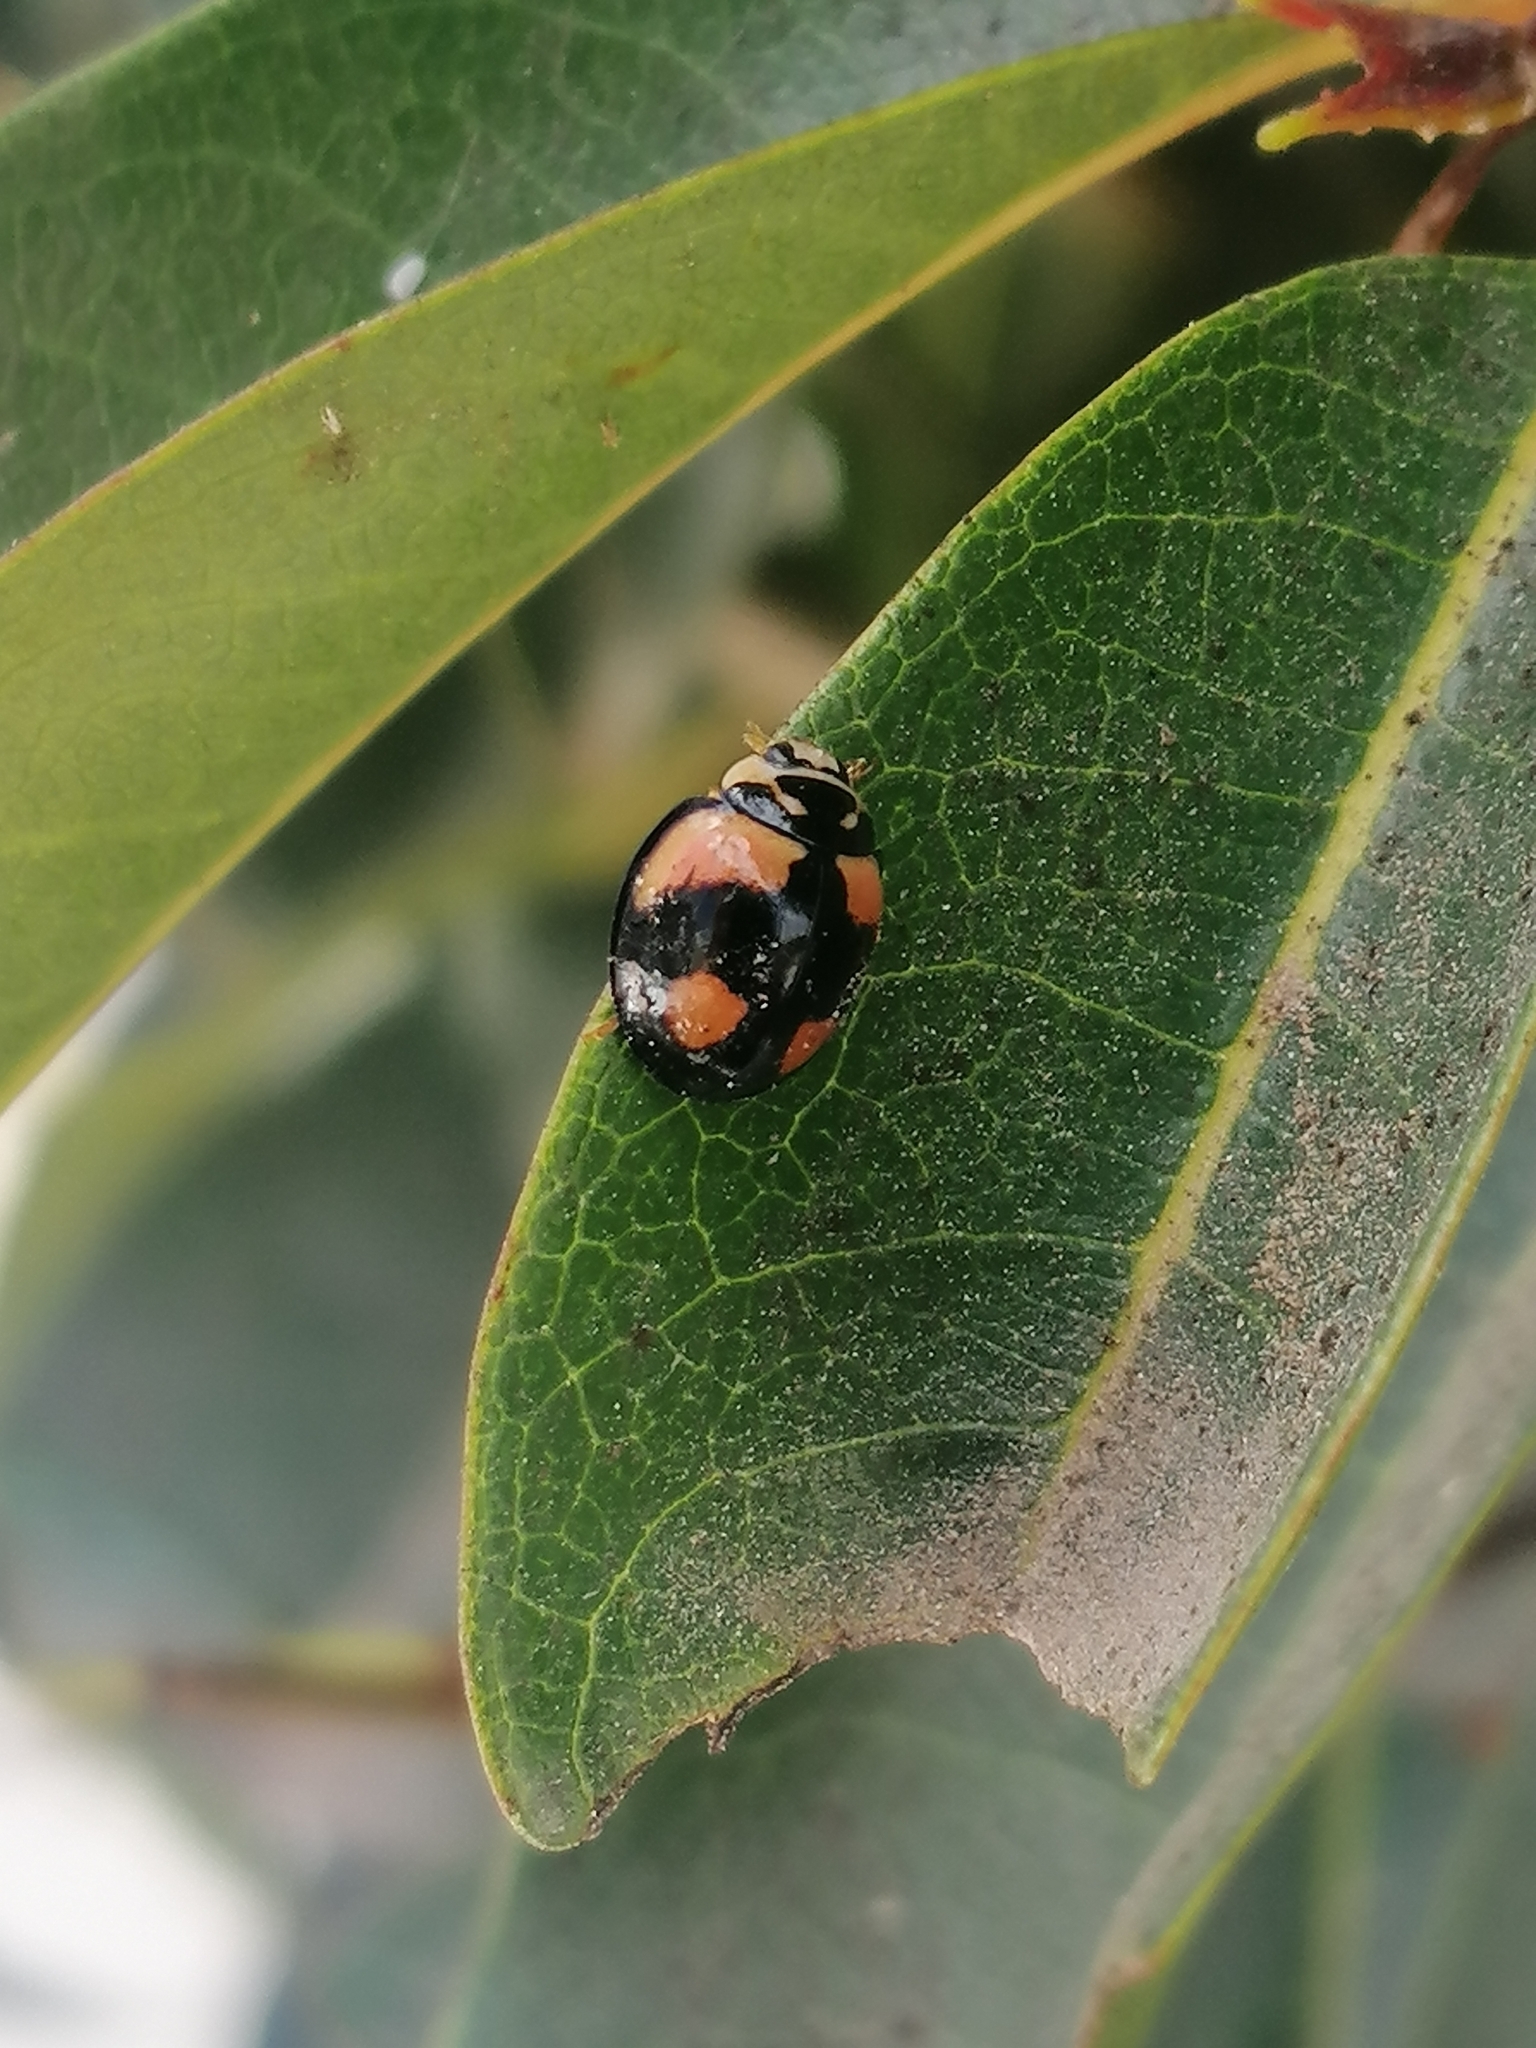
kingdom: Animalia
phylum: Arthropoda
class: Insecta
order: Coleoptera
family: Coccinellidae
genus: Cheilomenes
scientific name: Cheilomenes sexmaculata
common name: Ladybird beetle
